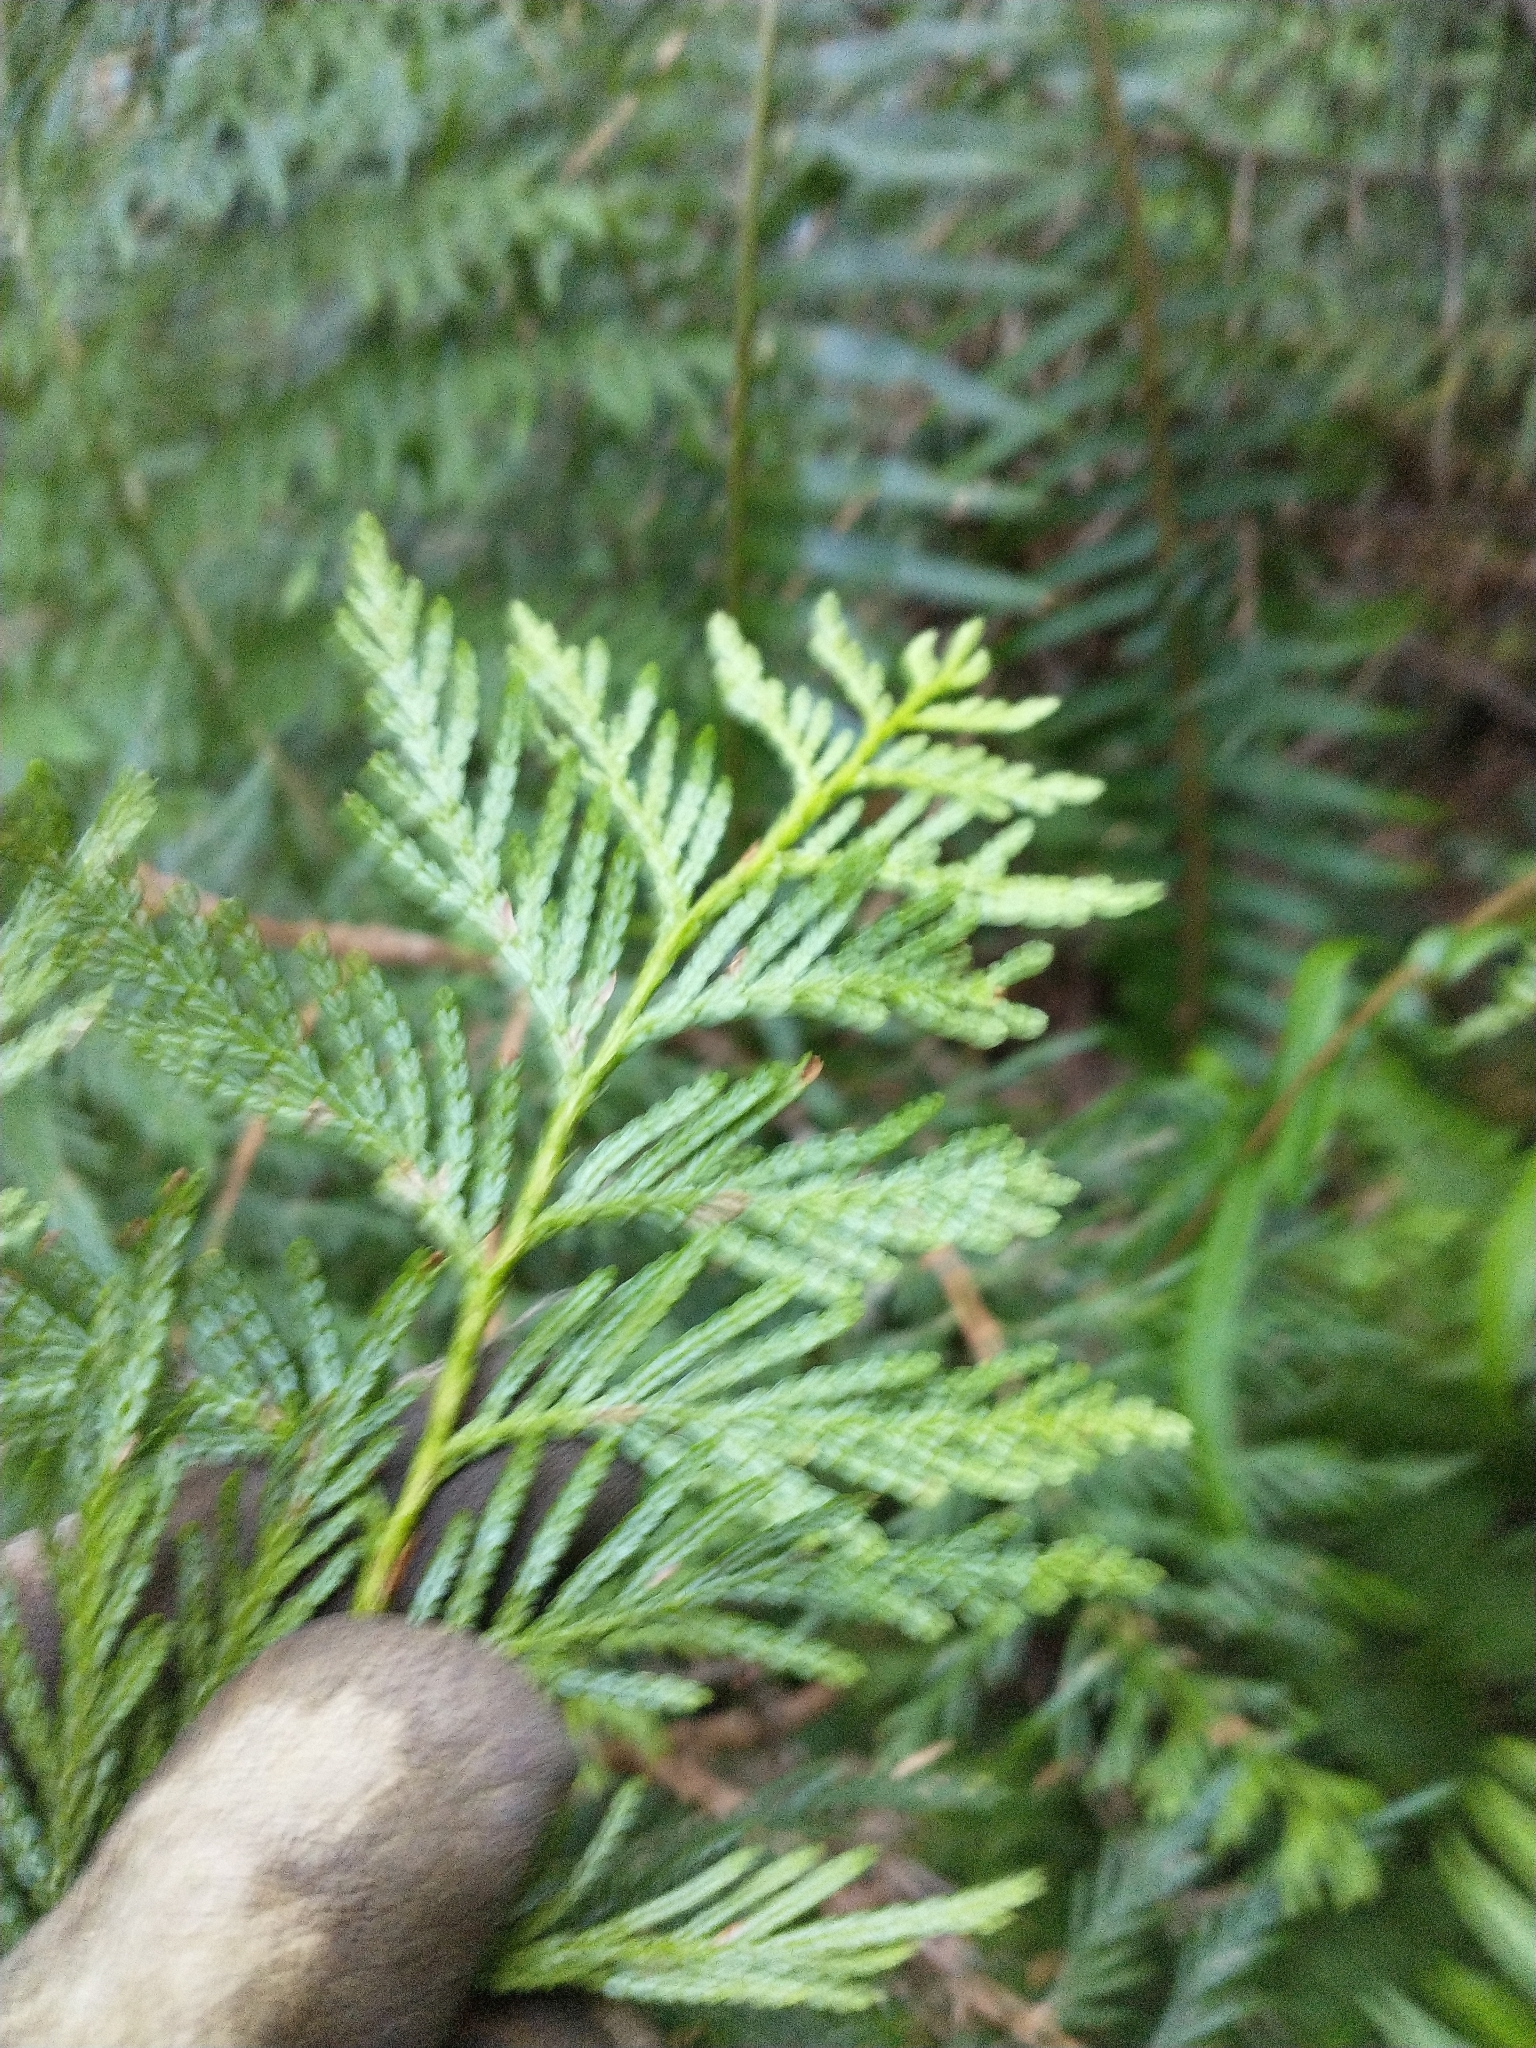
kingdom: Plantae
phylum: Tracheophyta
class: Pinopsida
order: Pinales
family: Cupressaceae
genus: Thuja
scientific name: Thuja plicata
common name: Western red-cedar
